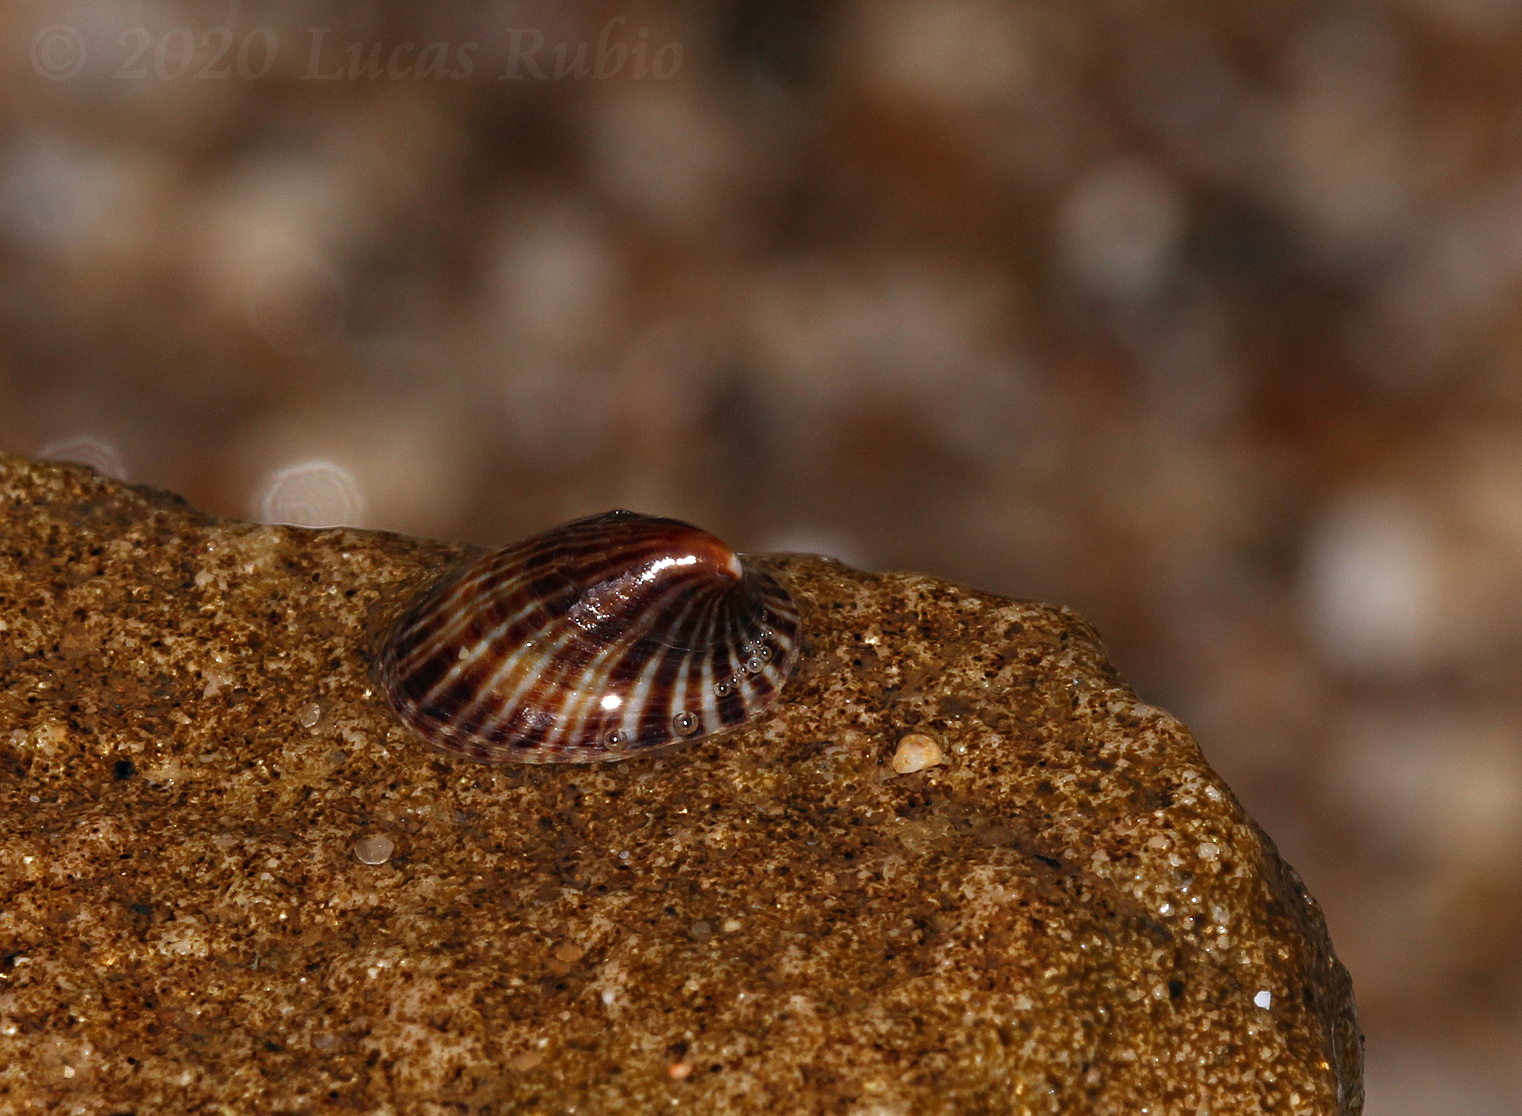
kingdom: Animalia
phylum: Mollusca
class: Gastropoda
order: Siphonariida
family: Siphonariidae
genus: Siphonaria
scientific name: Siphonaria lessonii
